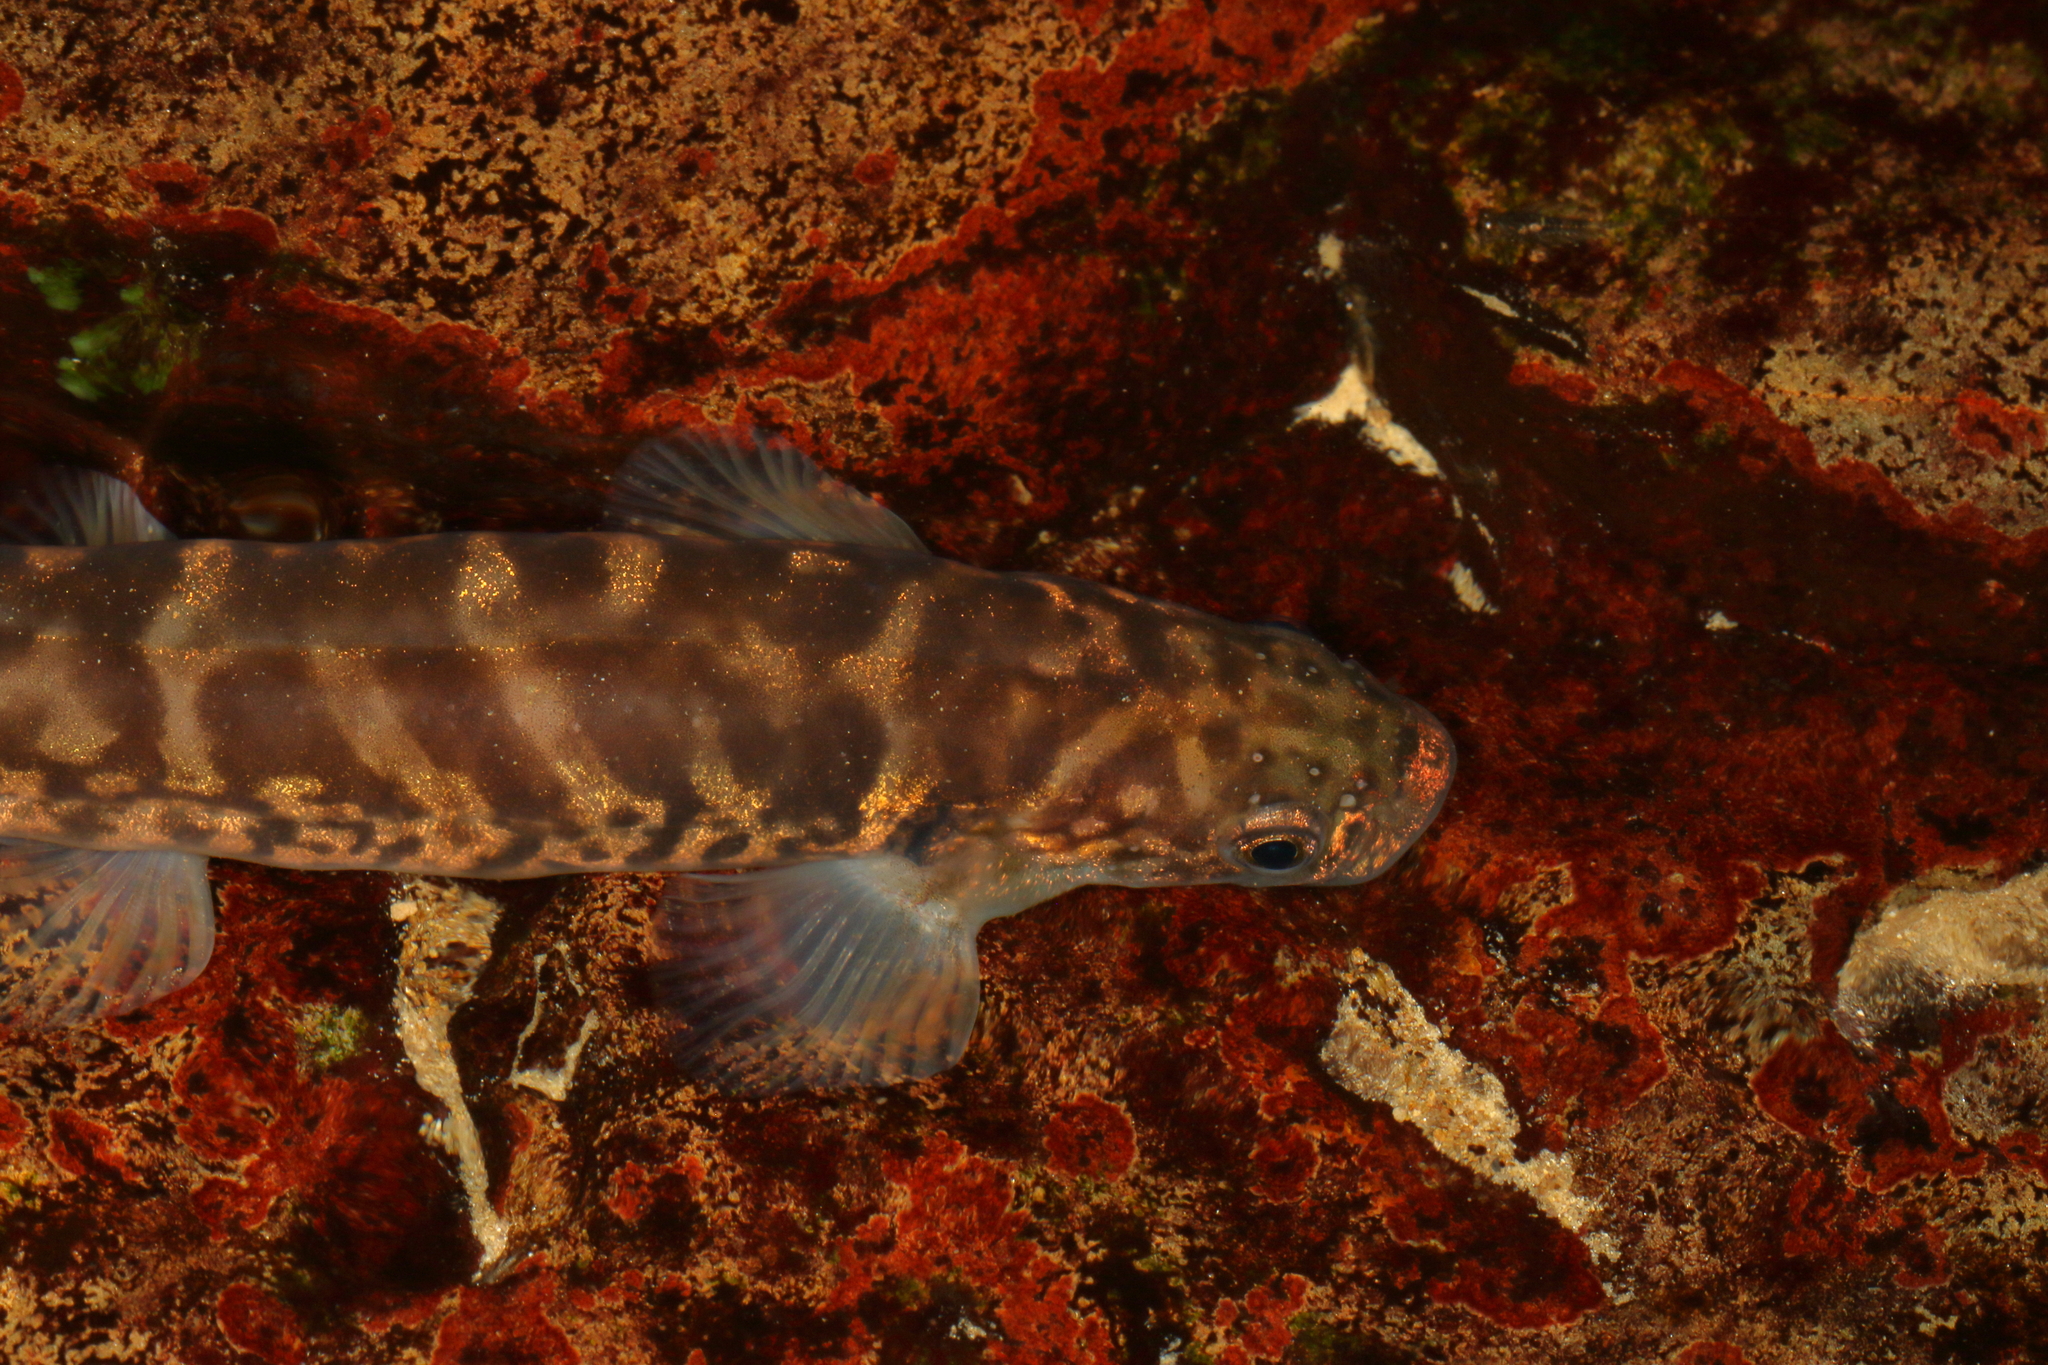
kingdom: Animalia
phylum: Chordata
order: Osmeriformes
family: Galaxiidae
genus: Galaxias
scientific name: Galaxias brevipinnis
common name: Koaro
